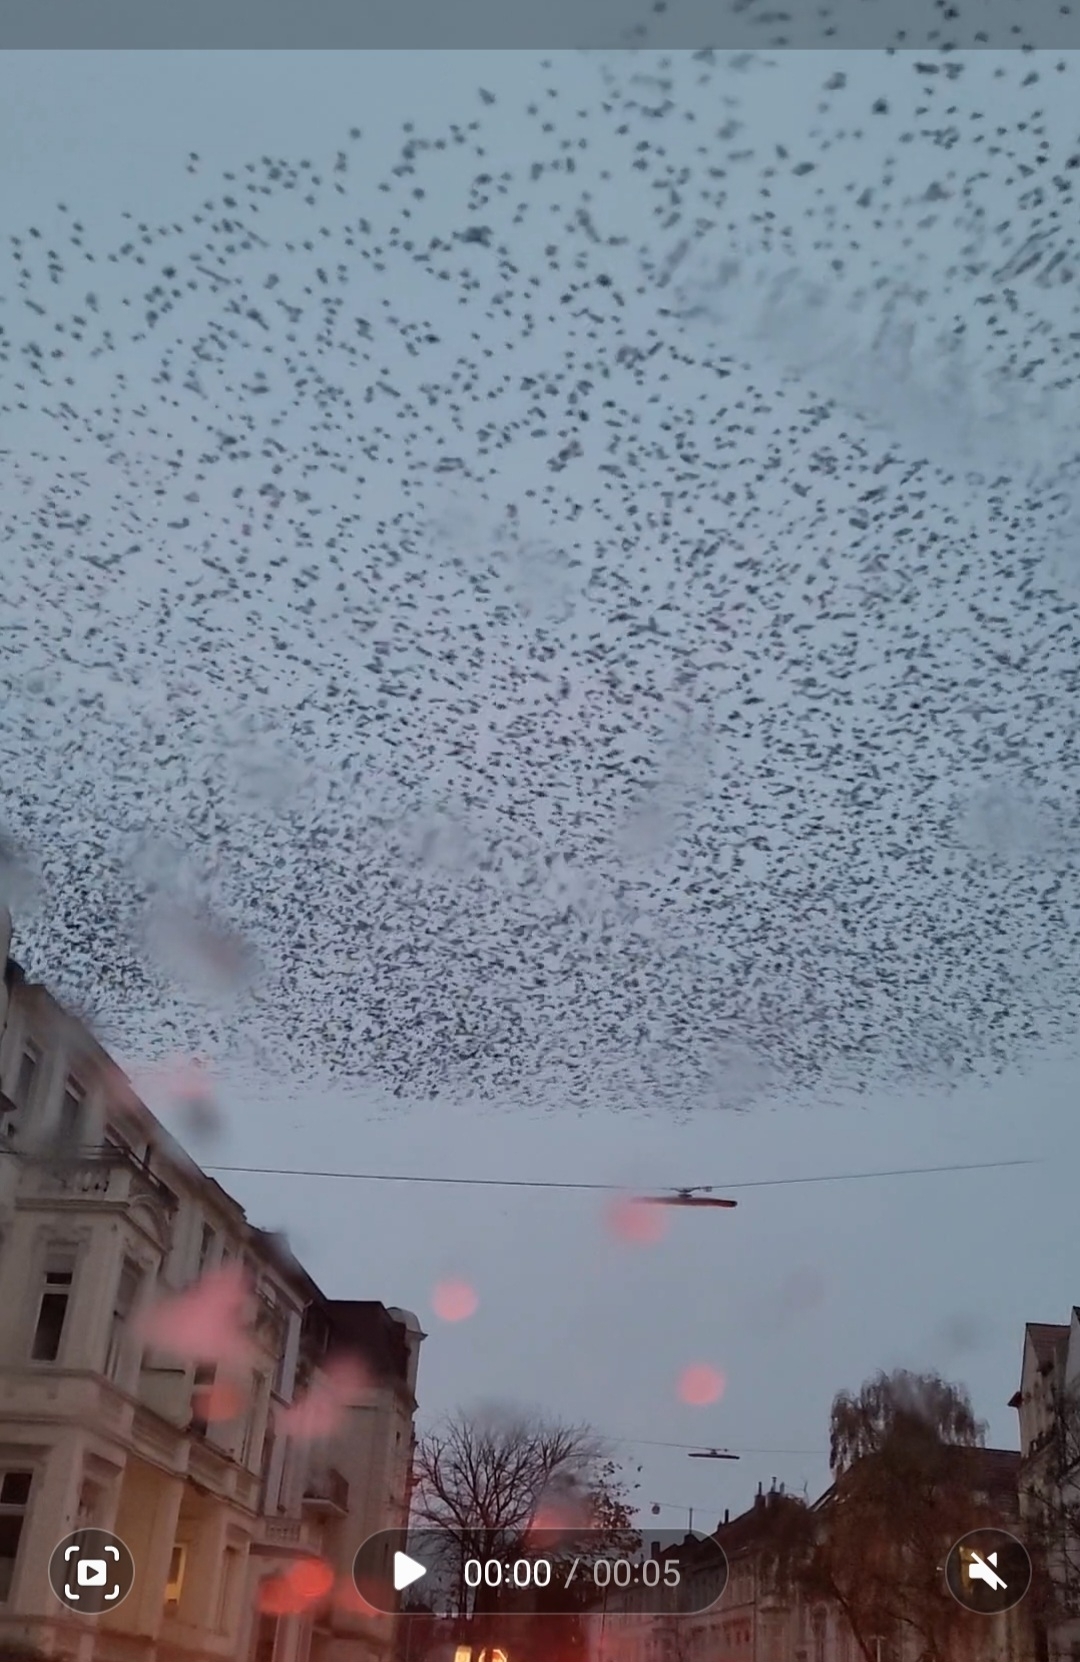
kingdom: Animalia
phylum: Chordata
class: Aves
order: Passeriformes
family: Sturnidae
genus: Sturnus
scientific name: Sturnus vulgaris
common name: Common starling
